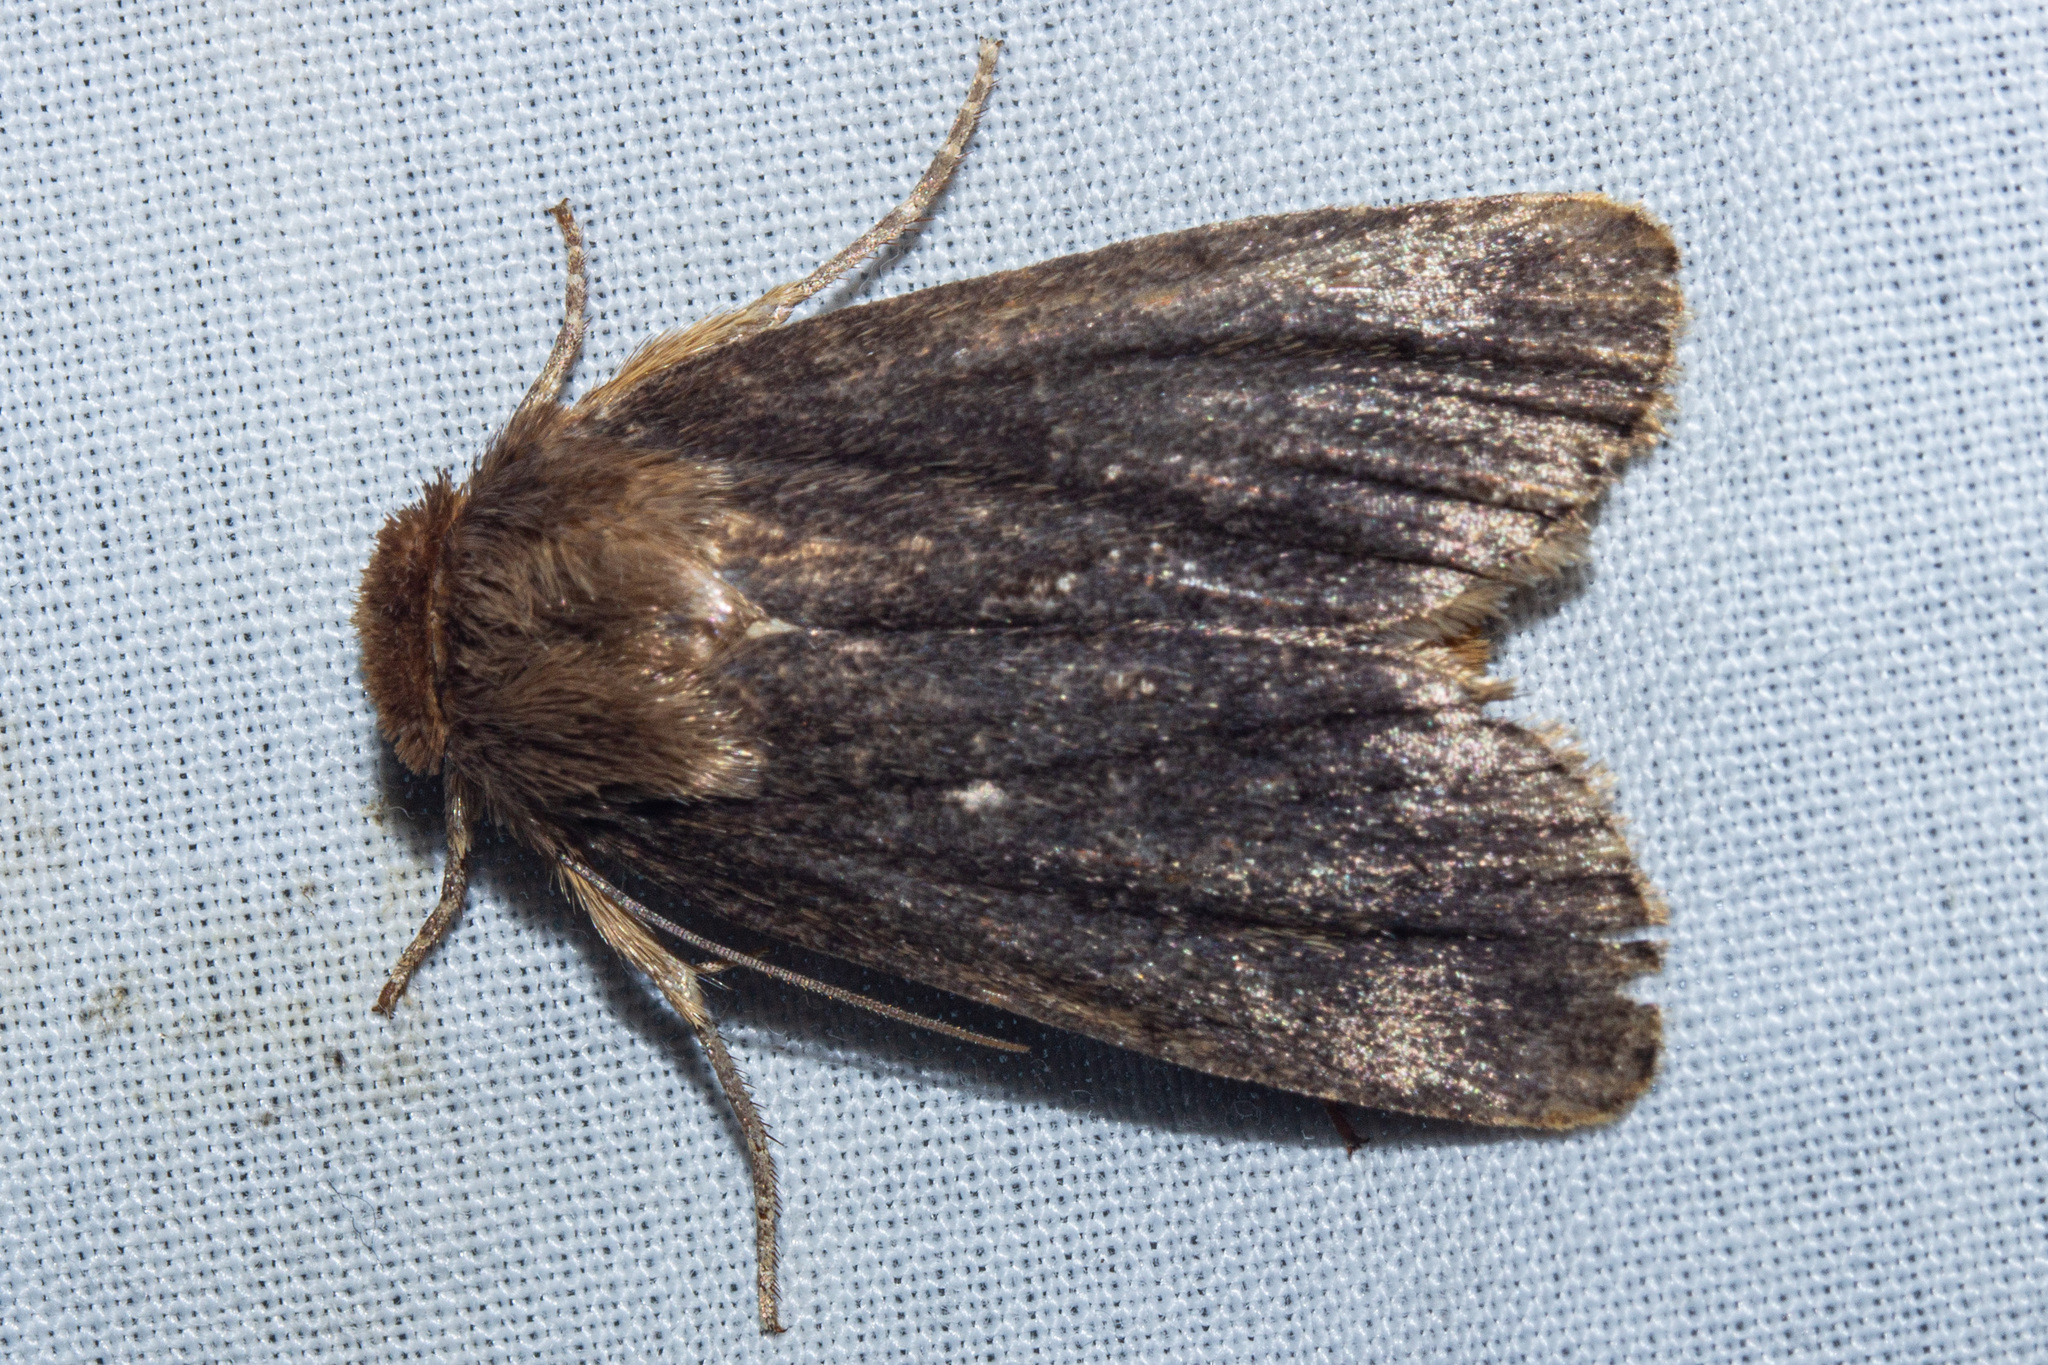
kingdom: Animalia
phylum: Arthropoda
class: Insecta
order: Lepidoptera
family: Noctuidae
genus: Bityla
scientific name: Bityla defigurata
